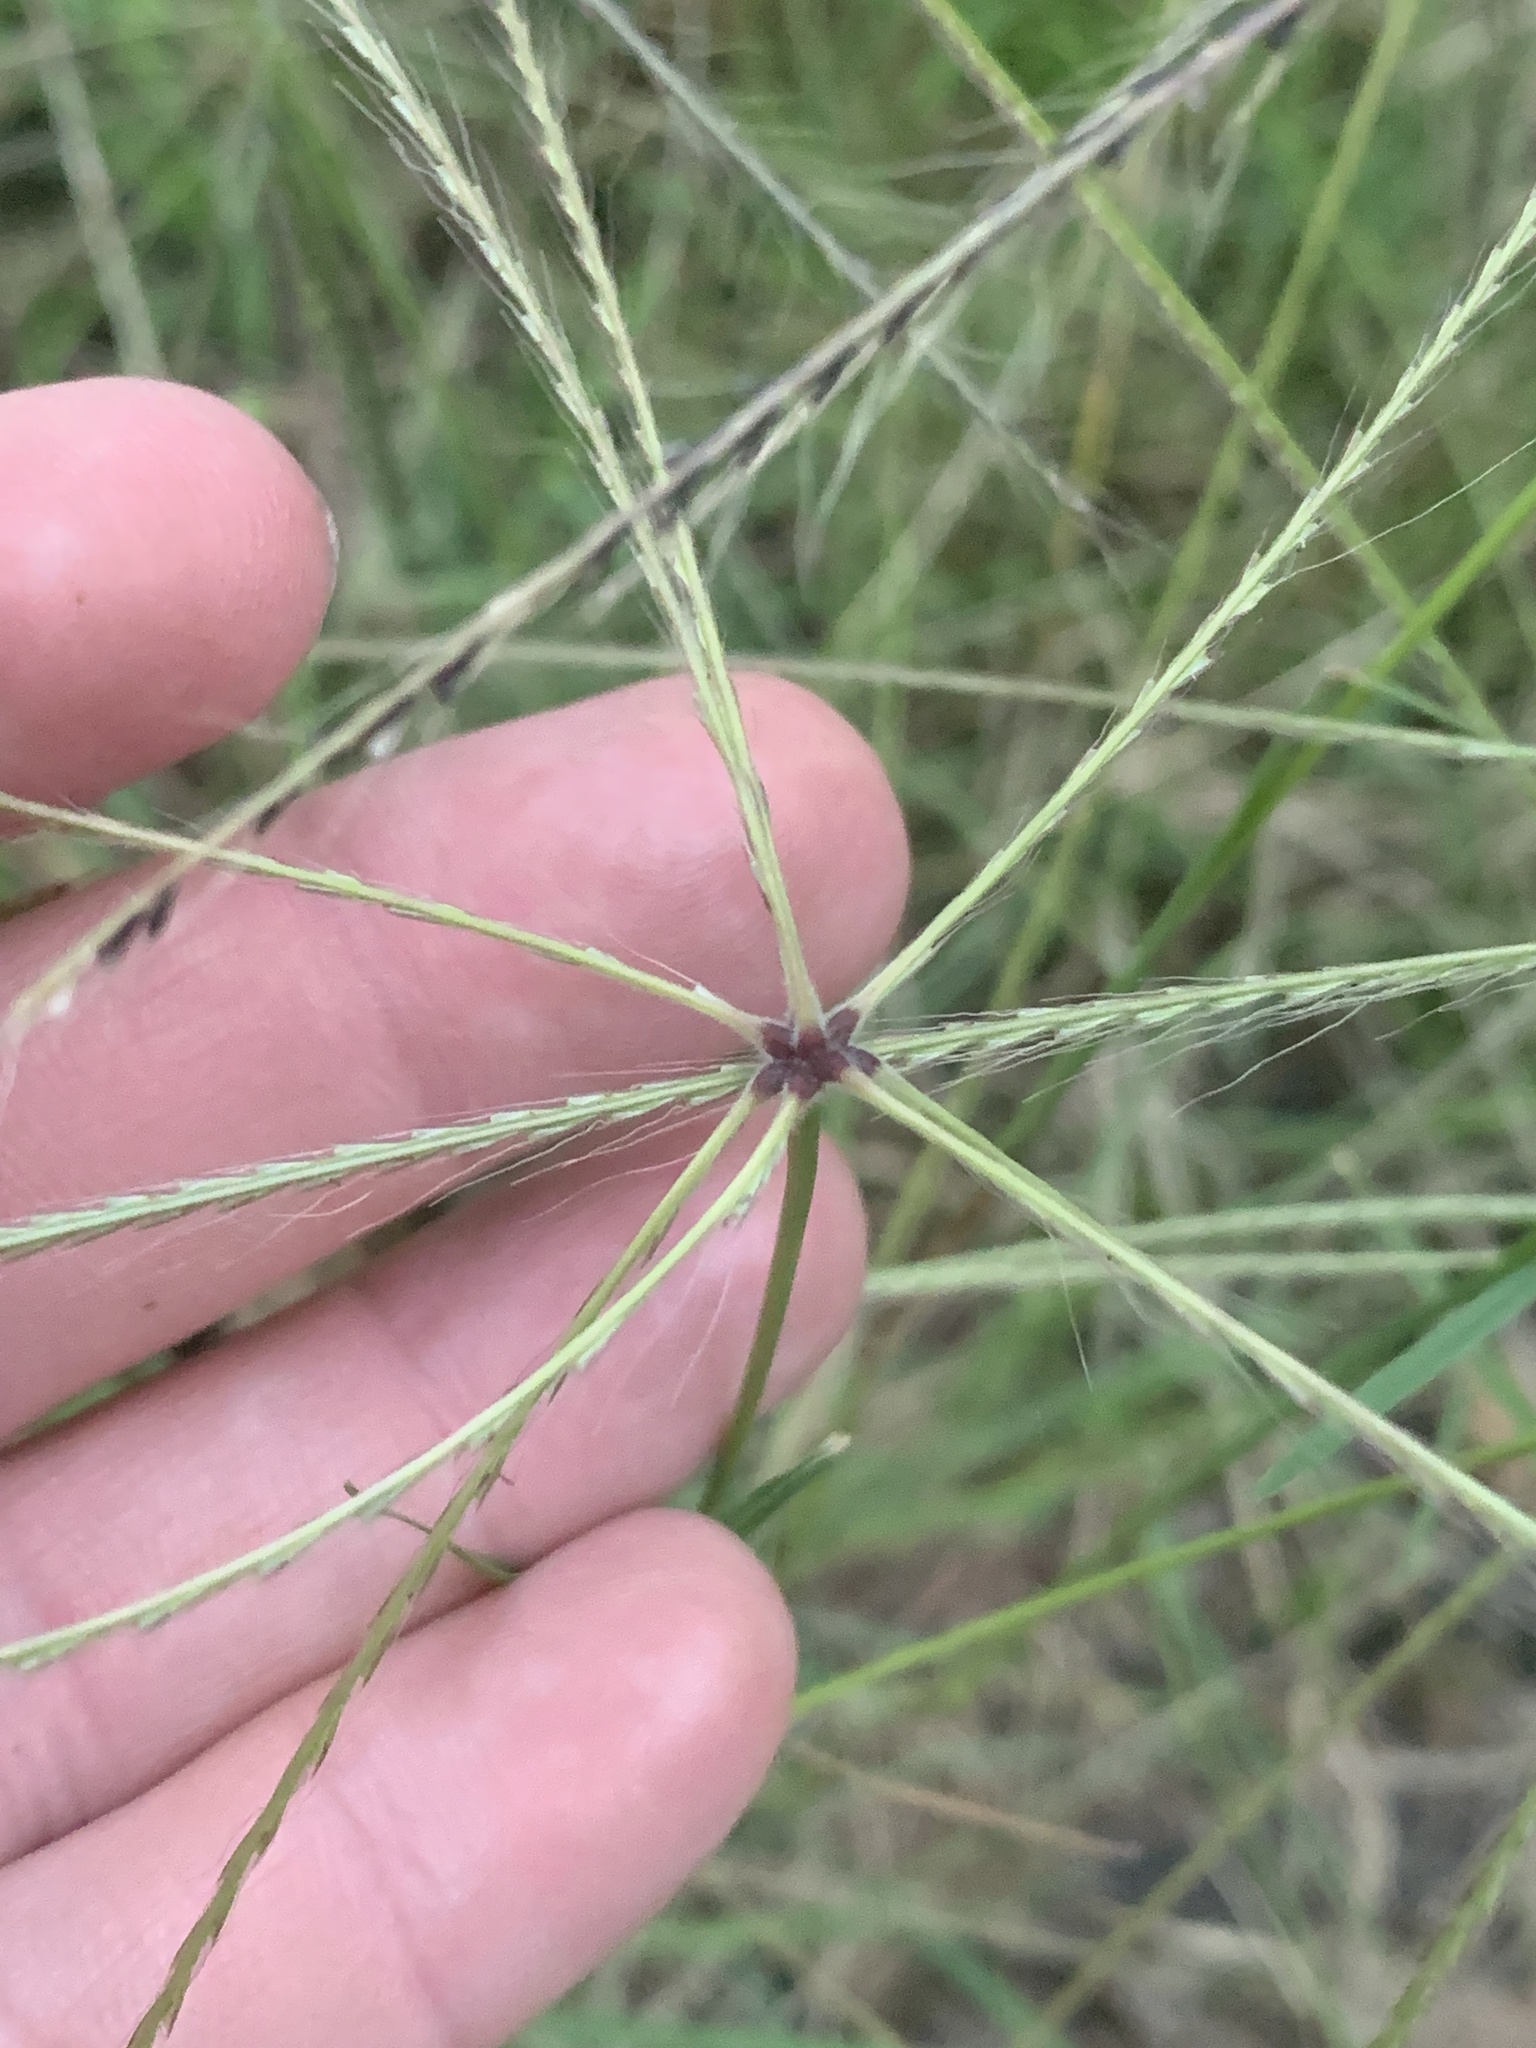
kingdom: Plantae
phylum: Tracheophyta
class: Liliopsida
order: Poales
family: Poaceae
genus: Chloris
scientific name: Chloris truncata
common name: Windmill-grass
